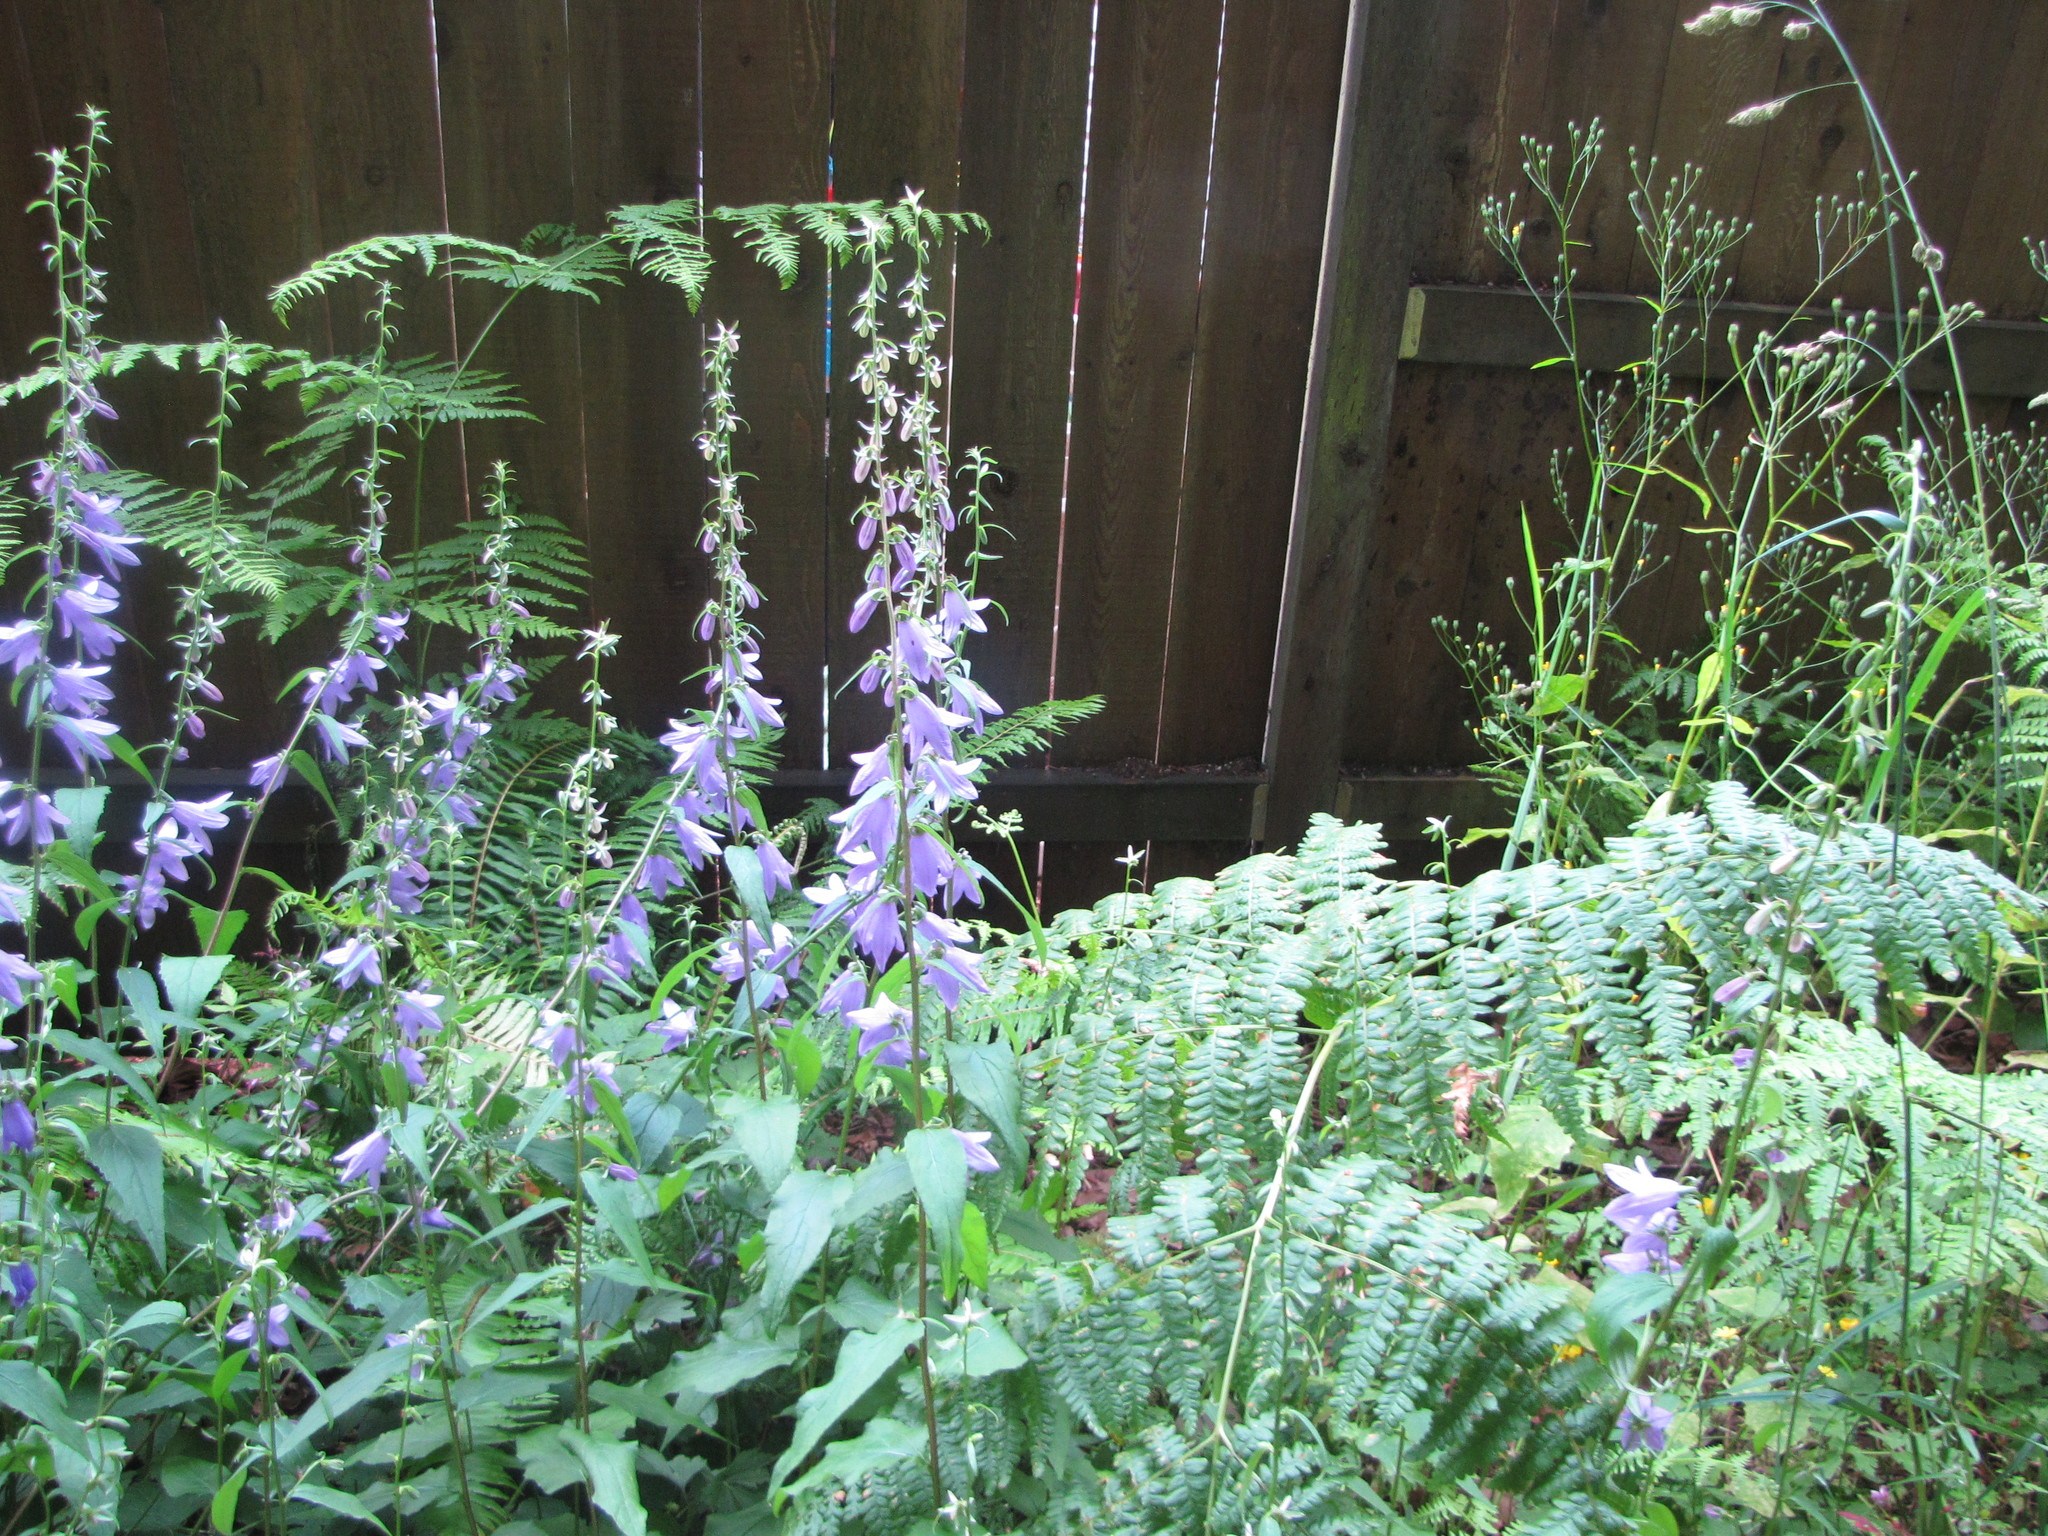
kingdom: Plantae
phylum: Tracheophyta
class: Magnoliopsida
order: Asterales
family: Campanulaceae
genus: Campanula
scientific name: Campanula rapunculoides
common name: Creeping bellflower
